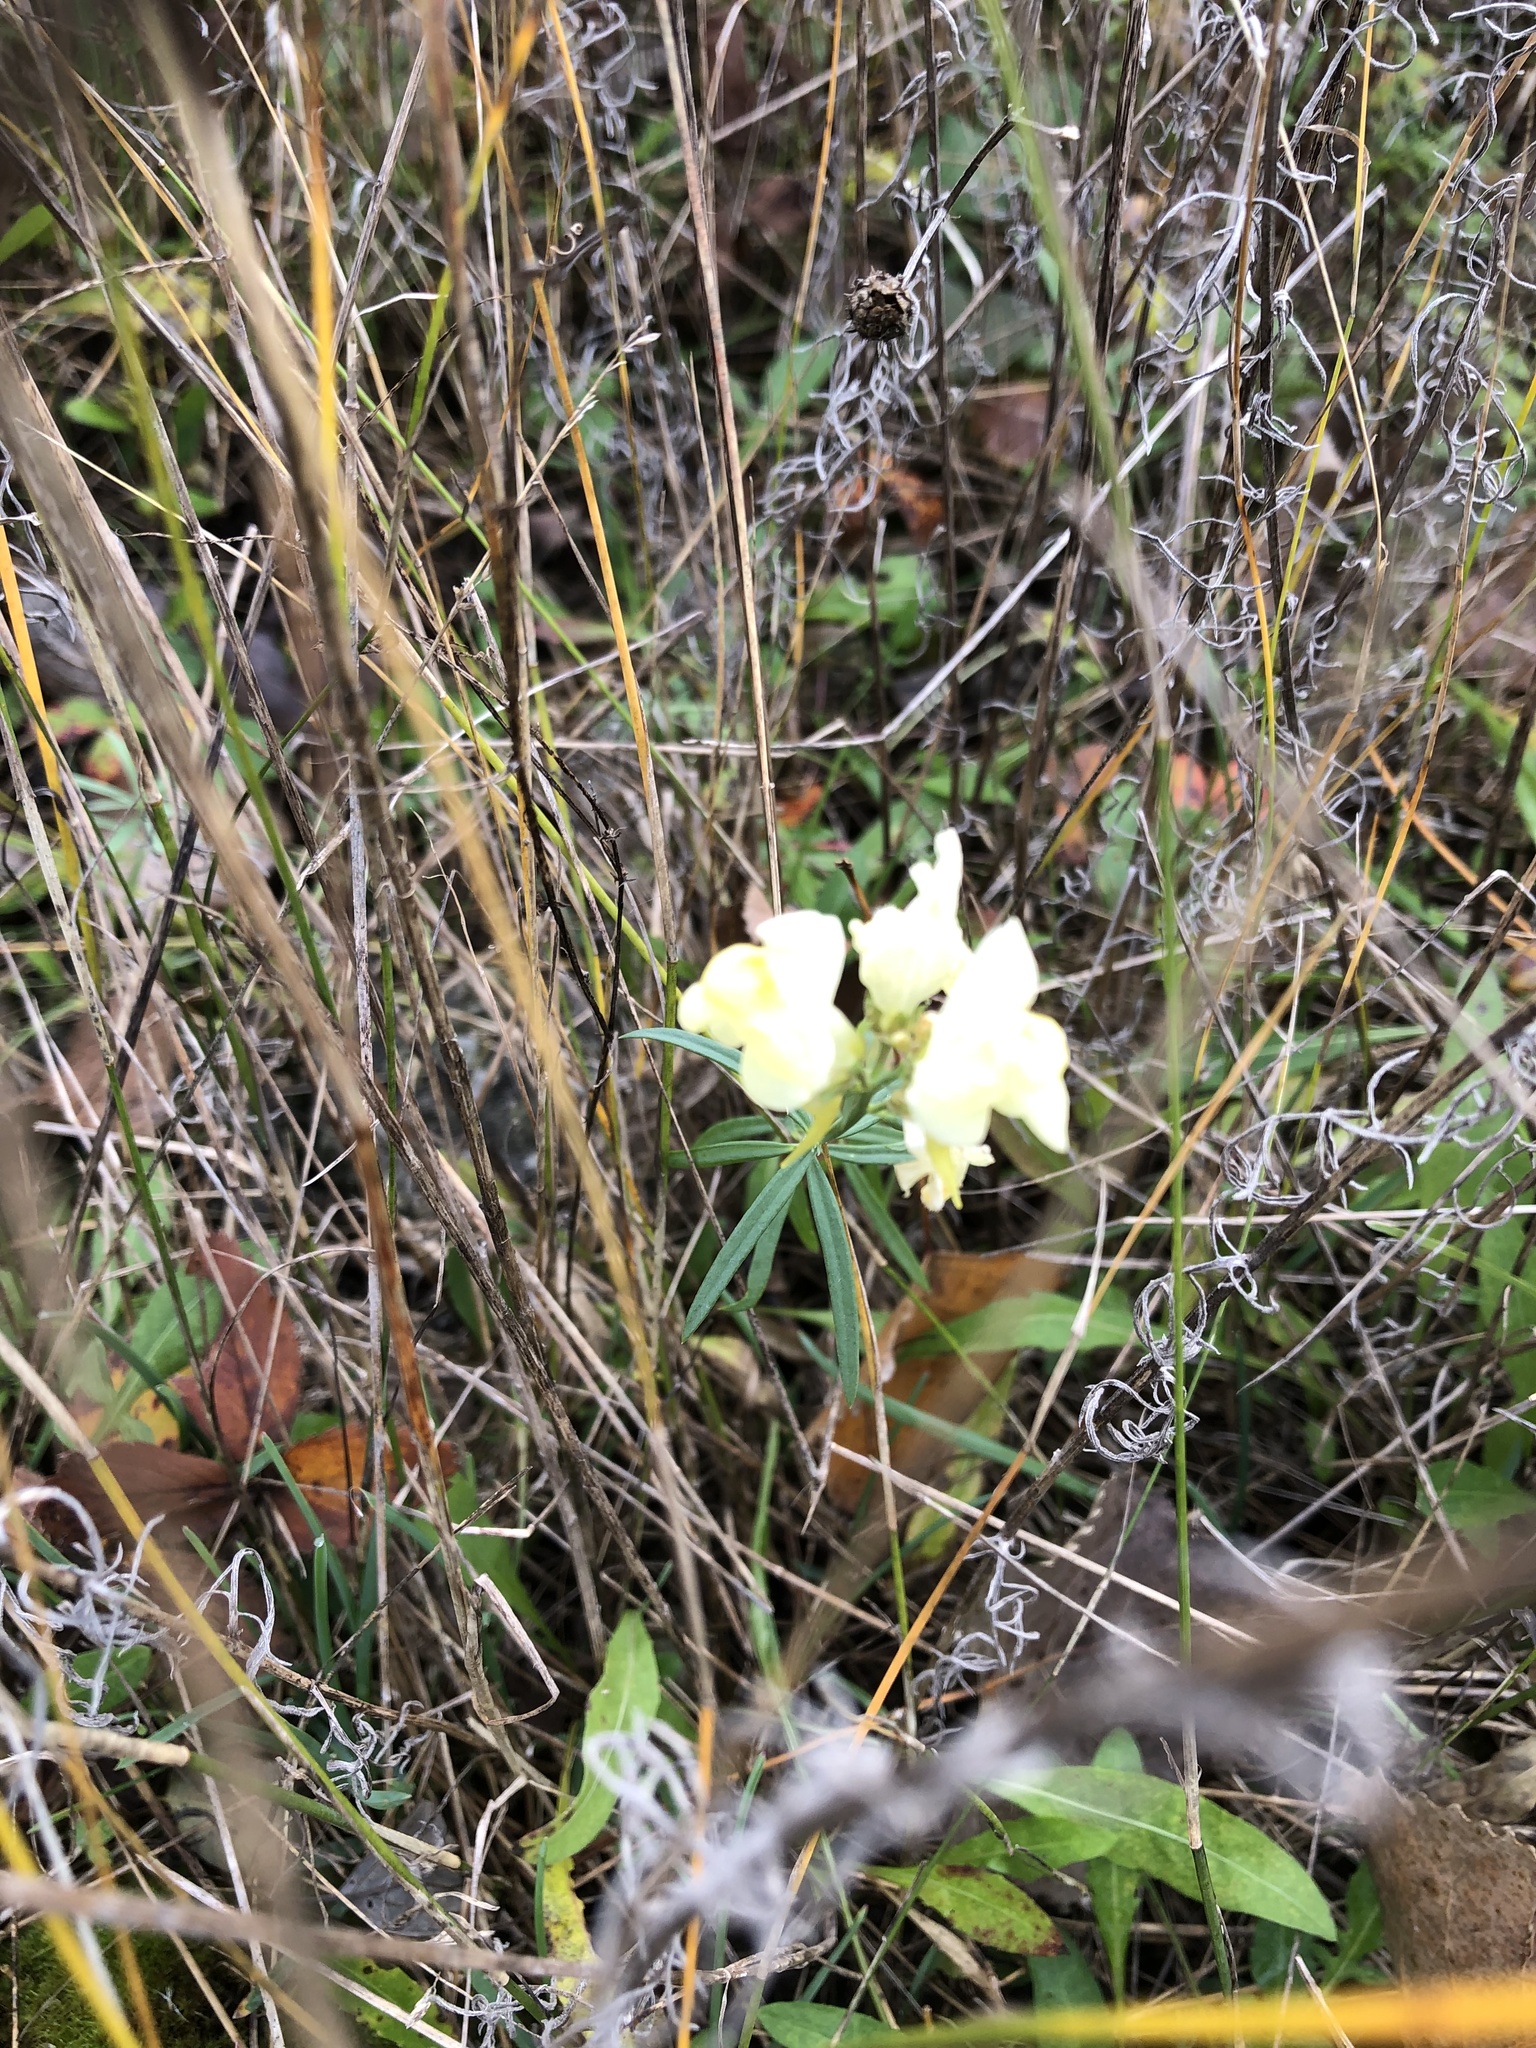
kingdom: Plantae
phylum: Tracheophyta
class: Magnoliopsida
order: Lamiales
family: Plantaginaceae
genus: Linaria
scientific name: Linaria vulgaris
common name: Butter and eggs
